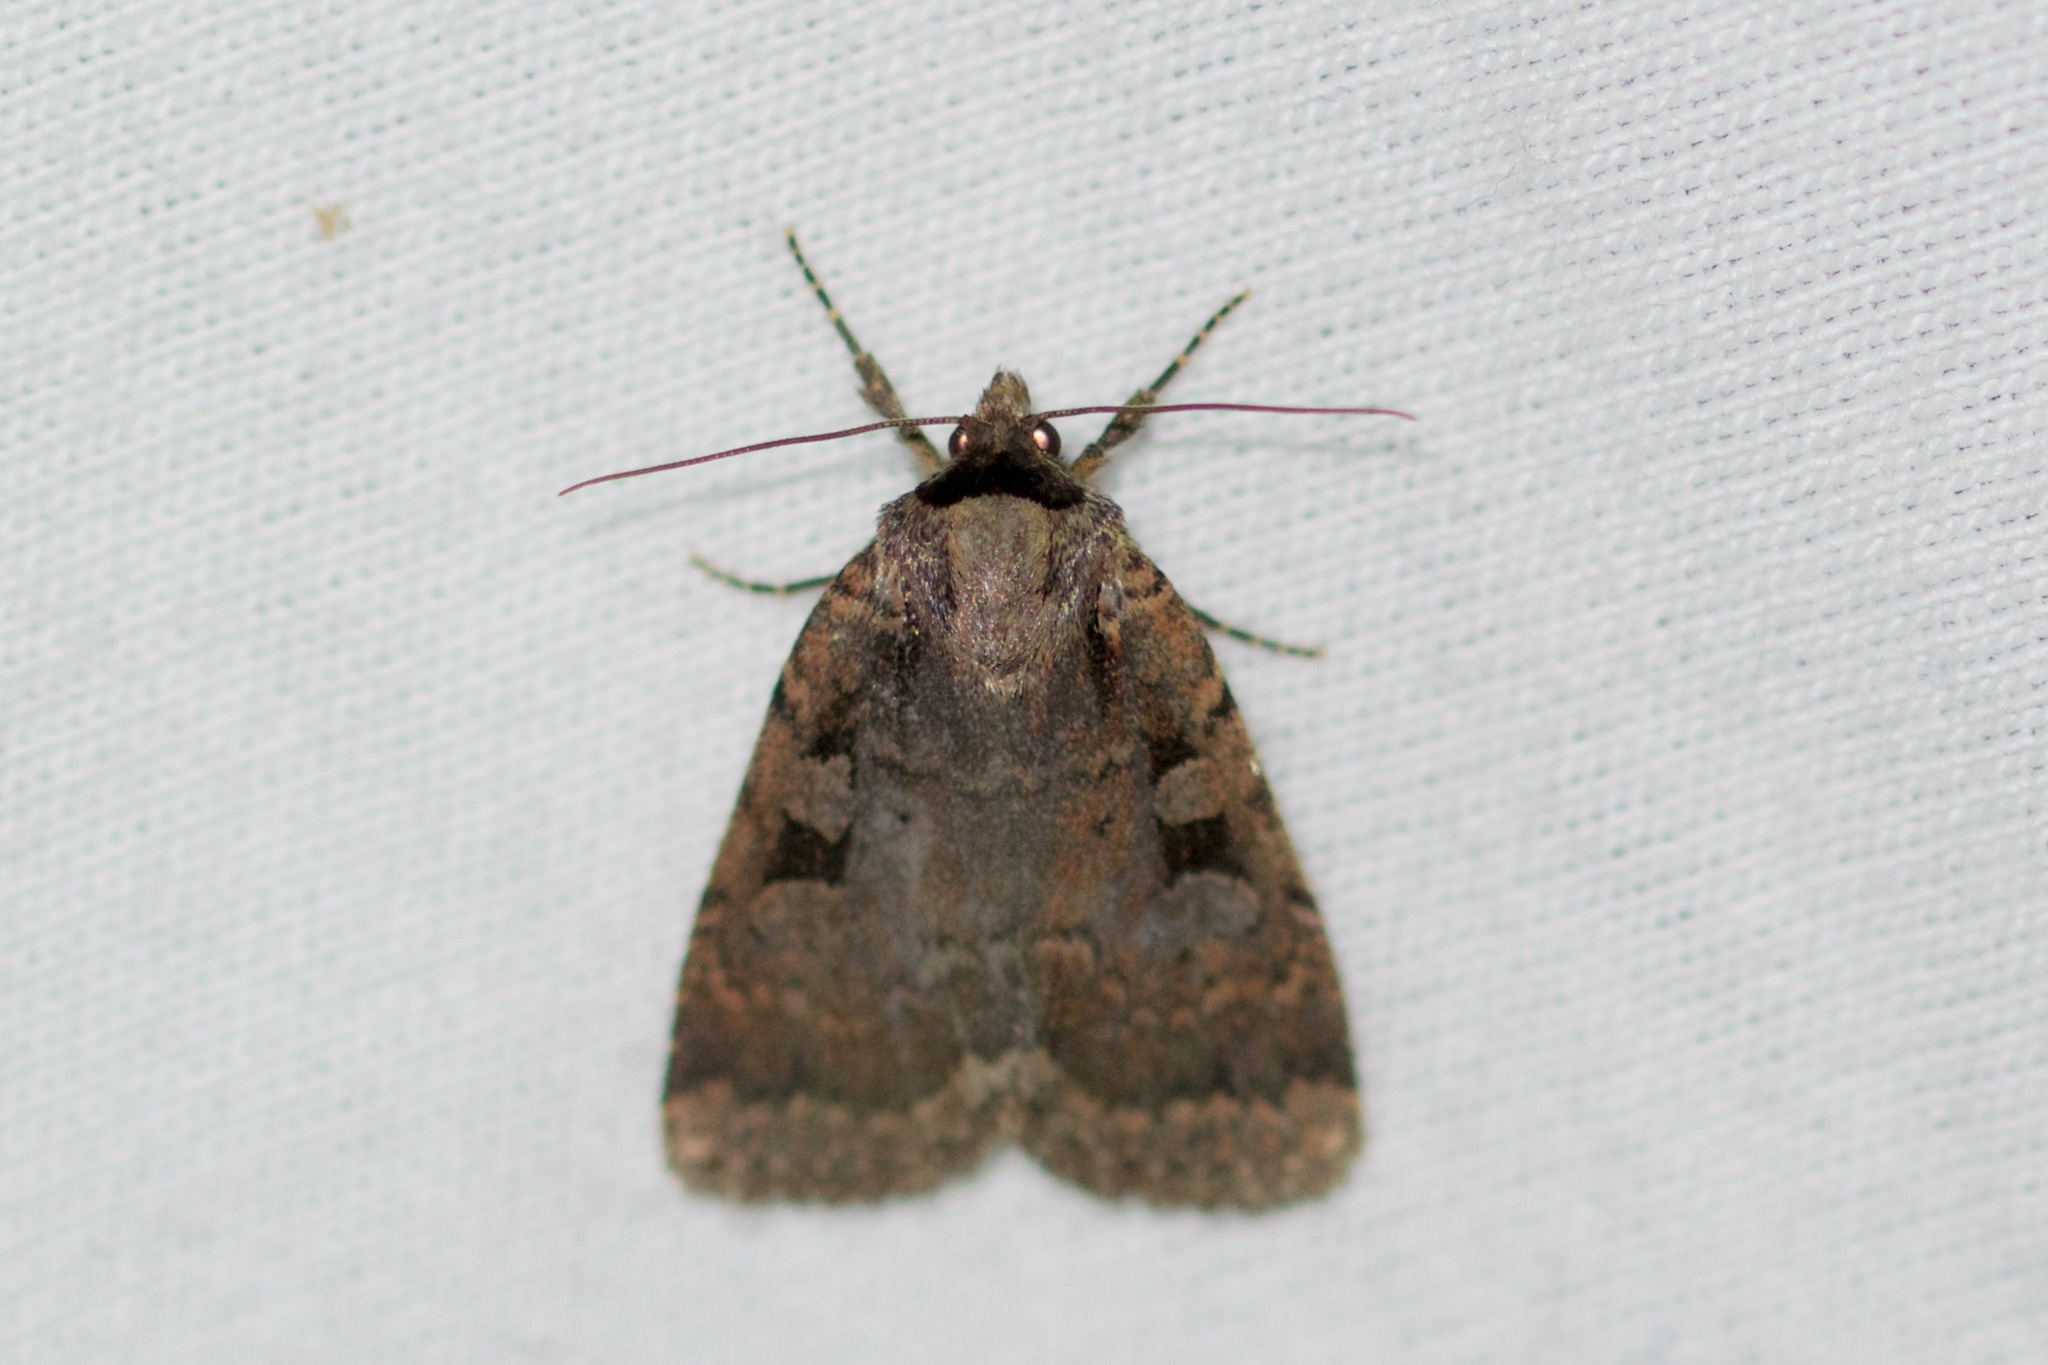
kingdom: Animalia
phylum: Arthropoda
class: Insecta
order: Lepidoptera
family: Noctuidae
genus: Eueretagrotis
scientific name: Eueretagrotis perattentus
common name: Two-spot dart moth
